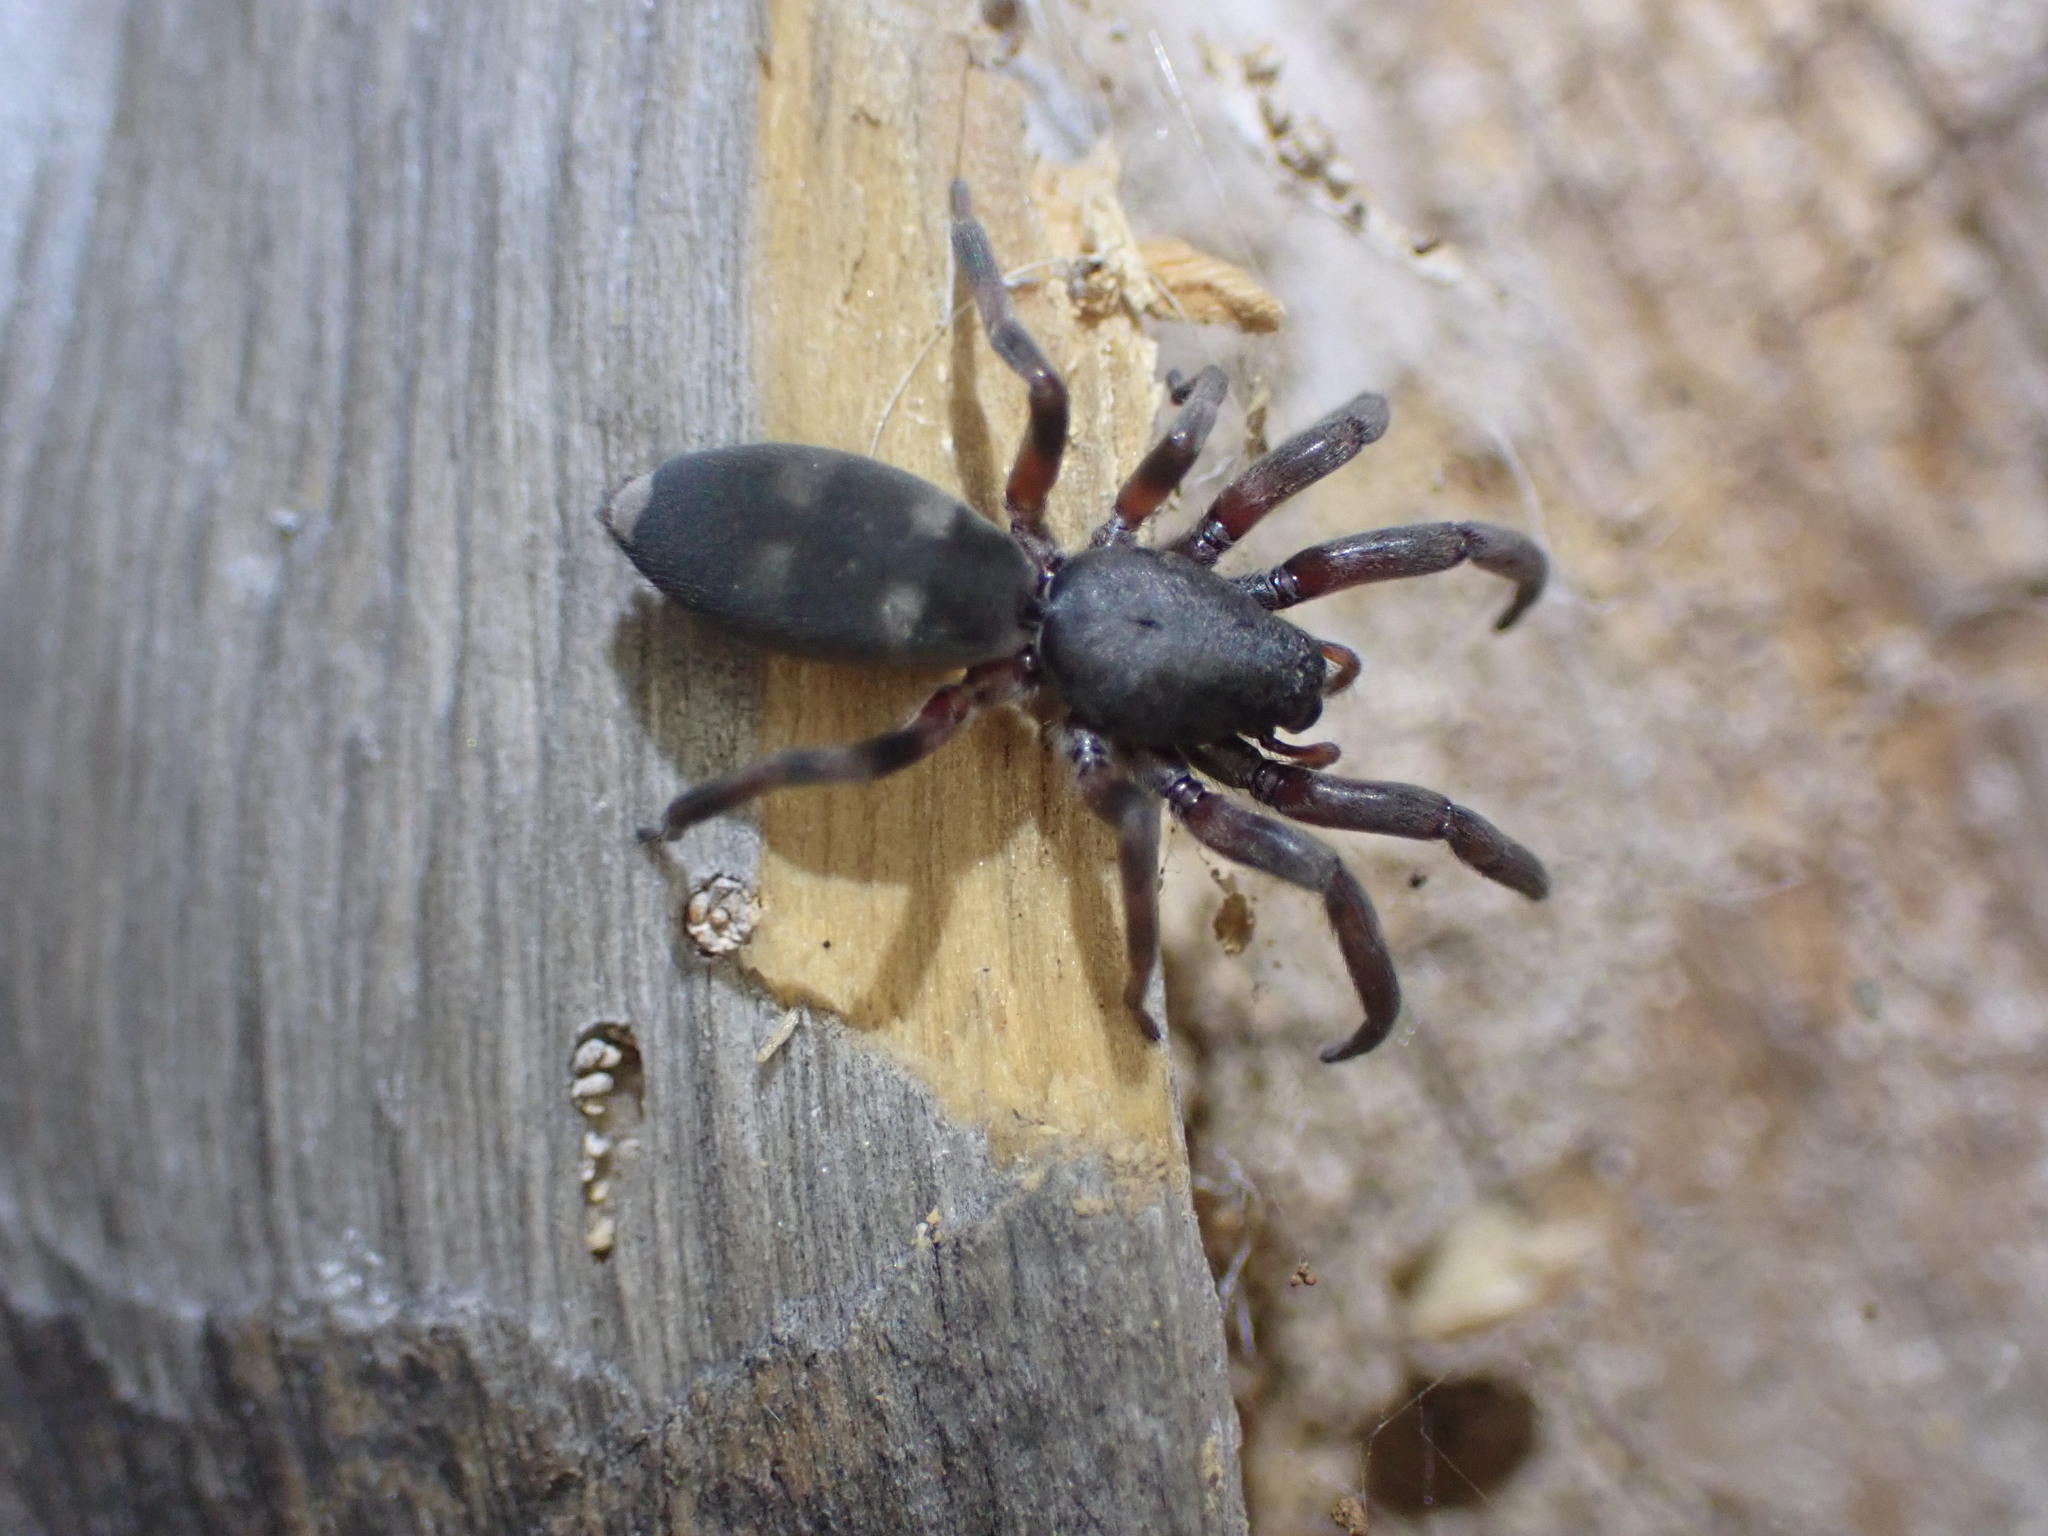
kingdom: Animalia
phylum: Arthropoda
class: Arachnida
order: Araneae
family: Lamponidae
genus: Lampona
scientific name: Lampona murina
